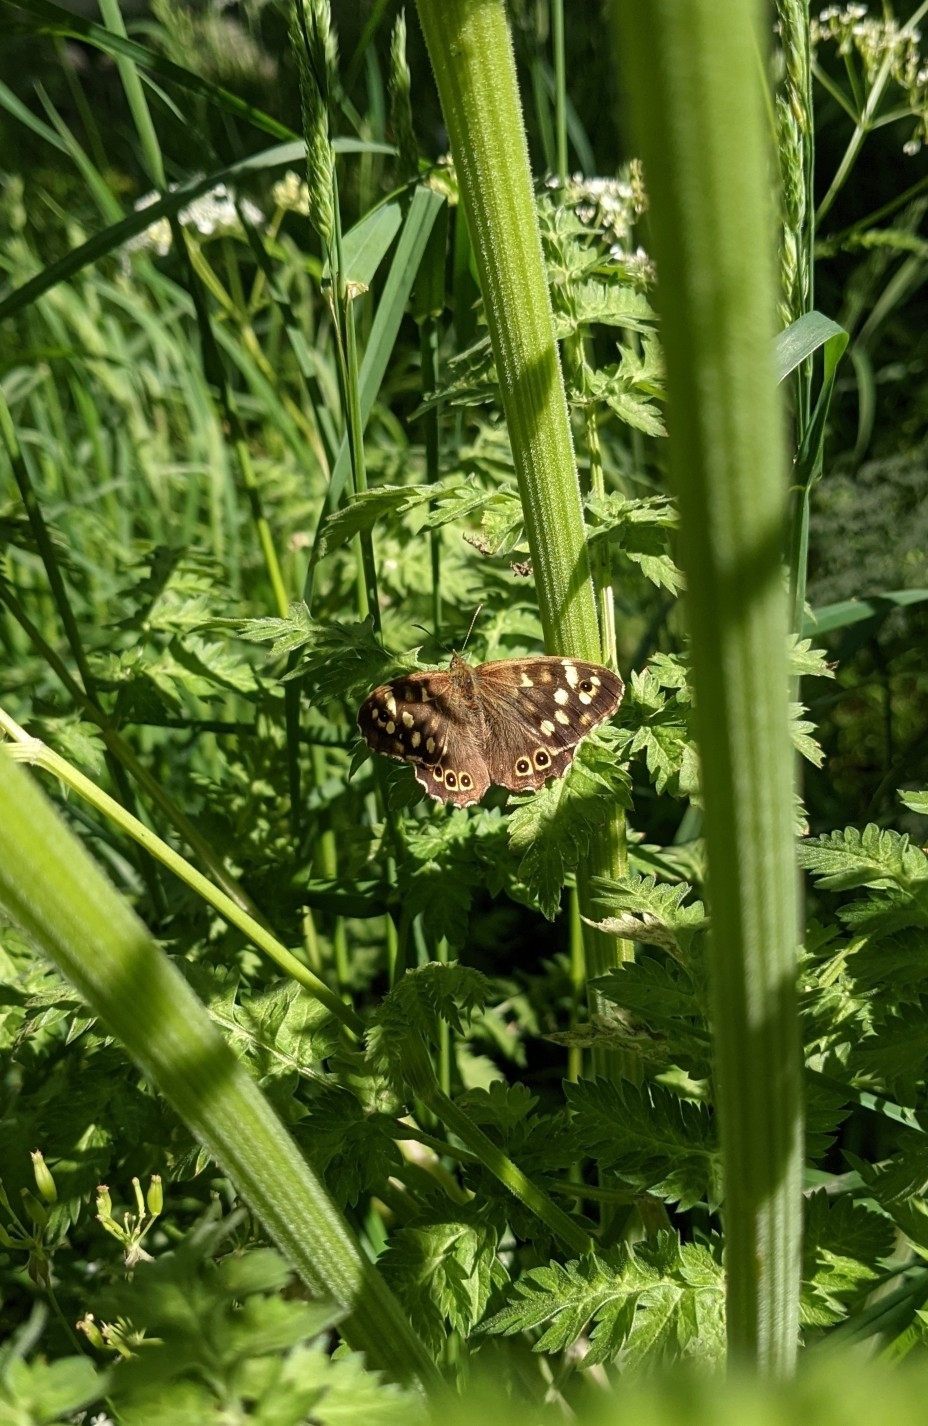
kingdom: Animalia
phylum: Arthropoda
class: Insecta
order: Lepidoptera
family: Nymphalidae
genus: Pararge
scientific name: Pararge aegeria
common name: Speckled wood
